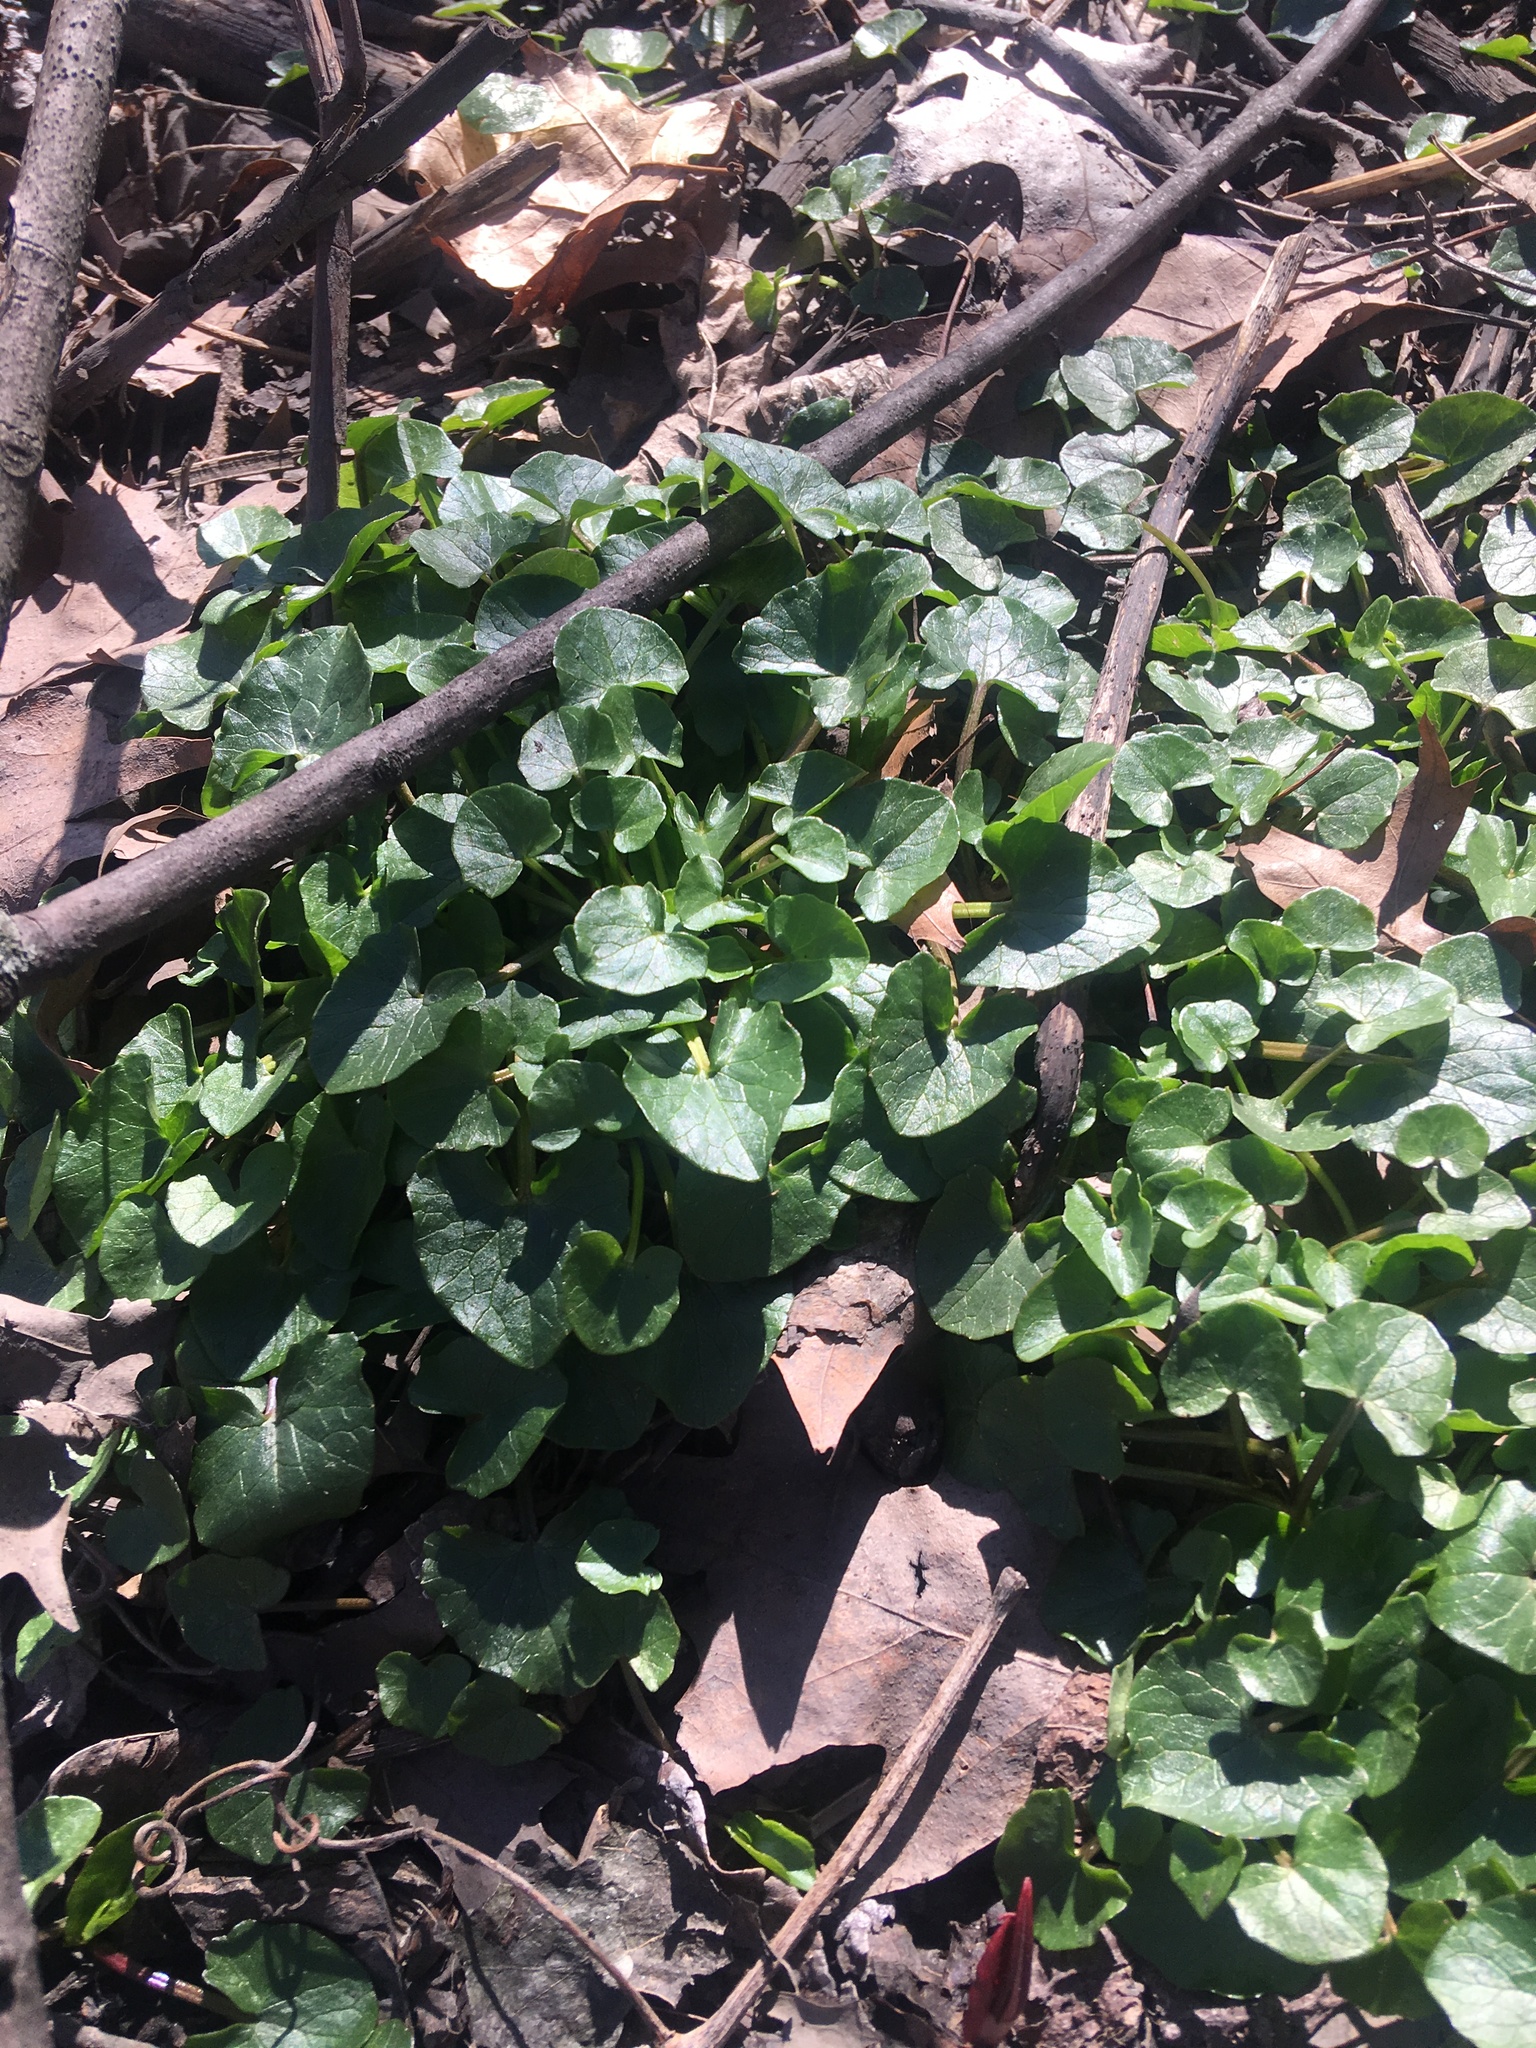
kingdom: Plantae
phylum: Tracheophyta
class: Magnoliopsida
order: Ranunculales
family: Ranunculaceae
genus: Ficaria
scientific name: Ficaria verna
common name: Lesser celandine
